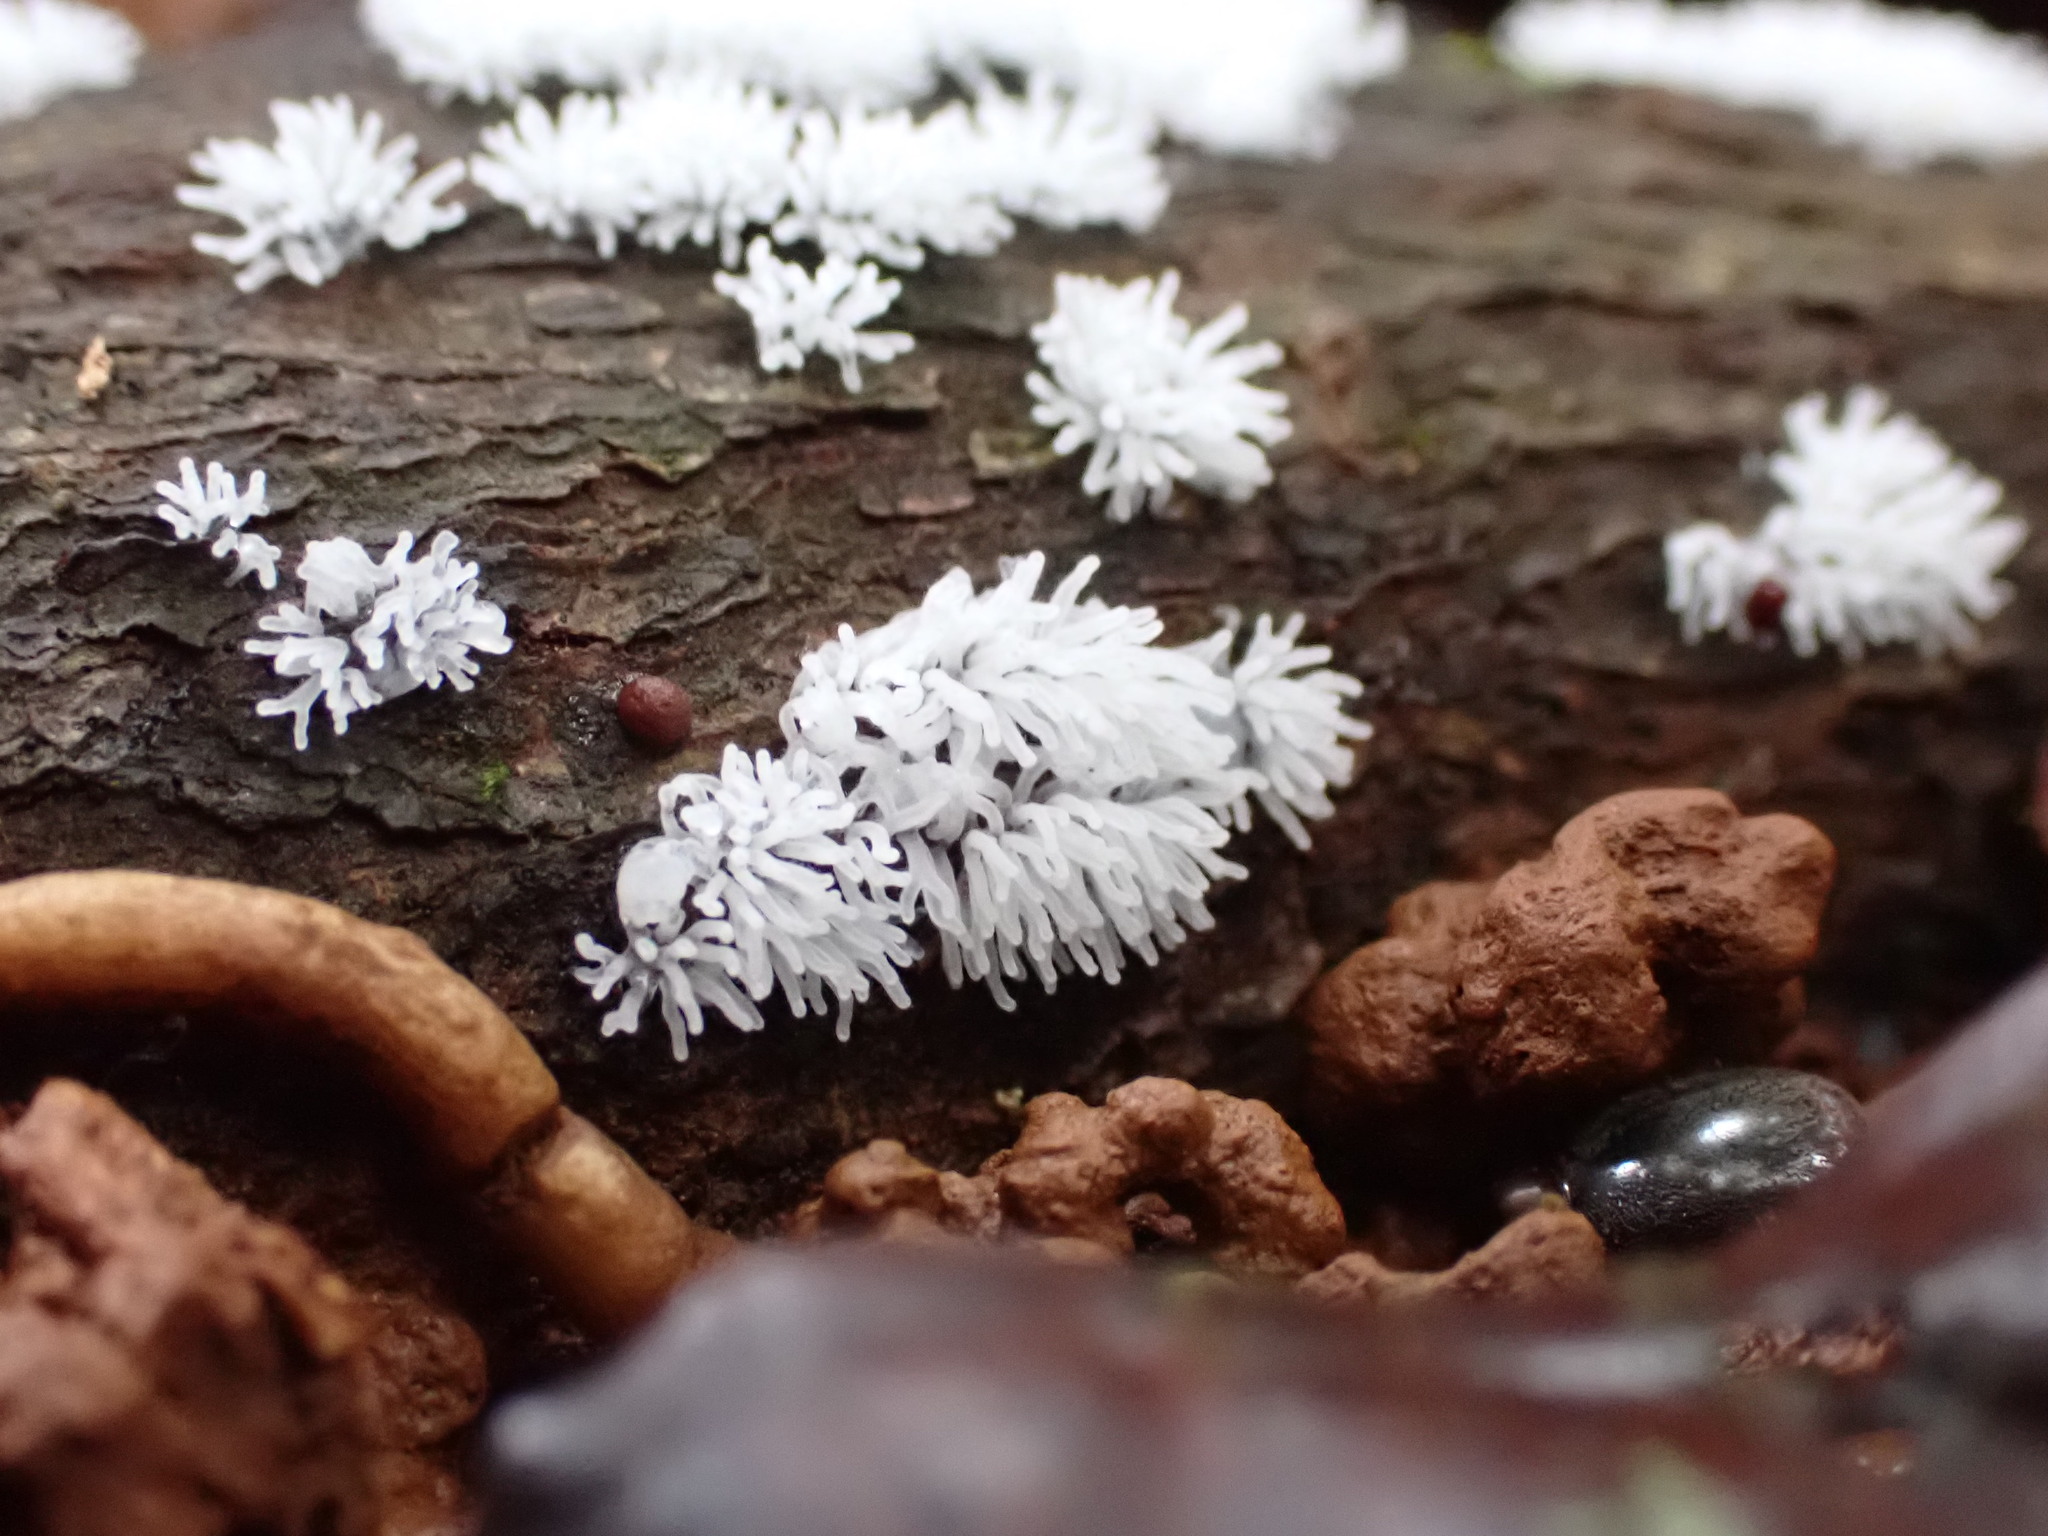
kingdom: Protozoa
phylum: Mycetozoa
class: Protosteliomycetes
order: Ceratiomyxales
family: Ceratiomyxaceae
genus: Ceratiomyxa
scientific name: Ceratiomyxa fruticulosa
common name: Honeycomb coral slime mold
